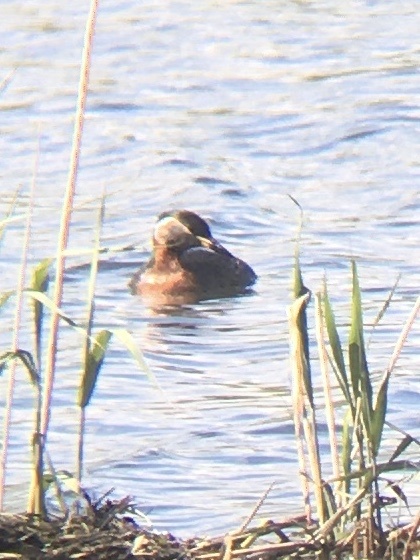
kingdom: Animalia
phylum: Chordata
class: Aves
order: Podicipediformes
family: Podicipedidae
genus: Podiceps
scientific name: Podiceps grisegena
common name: Red-necked grebe
